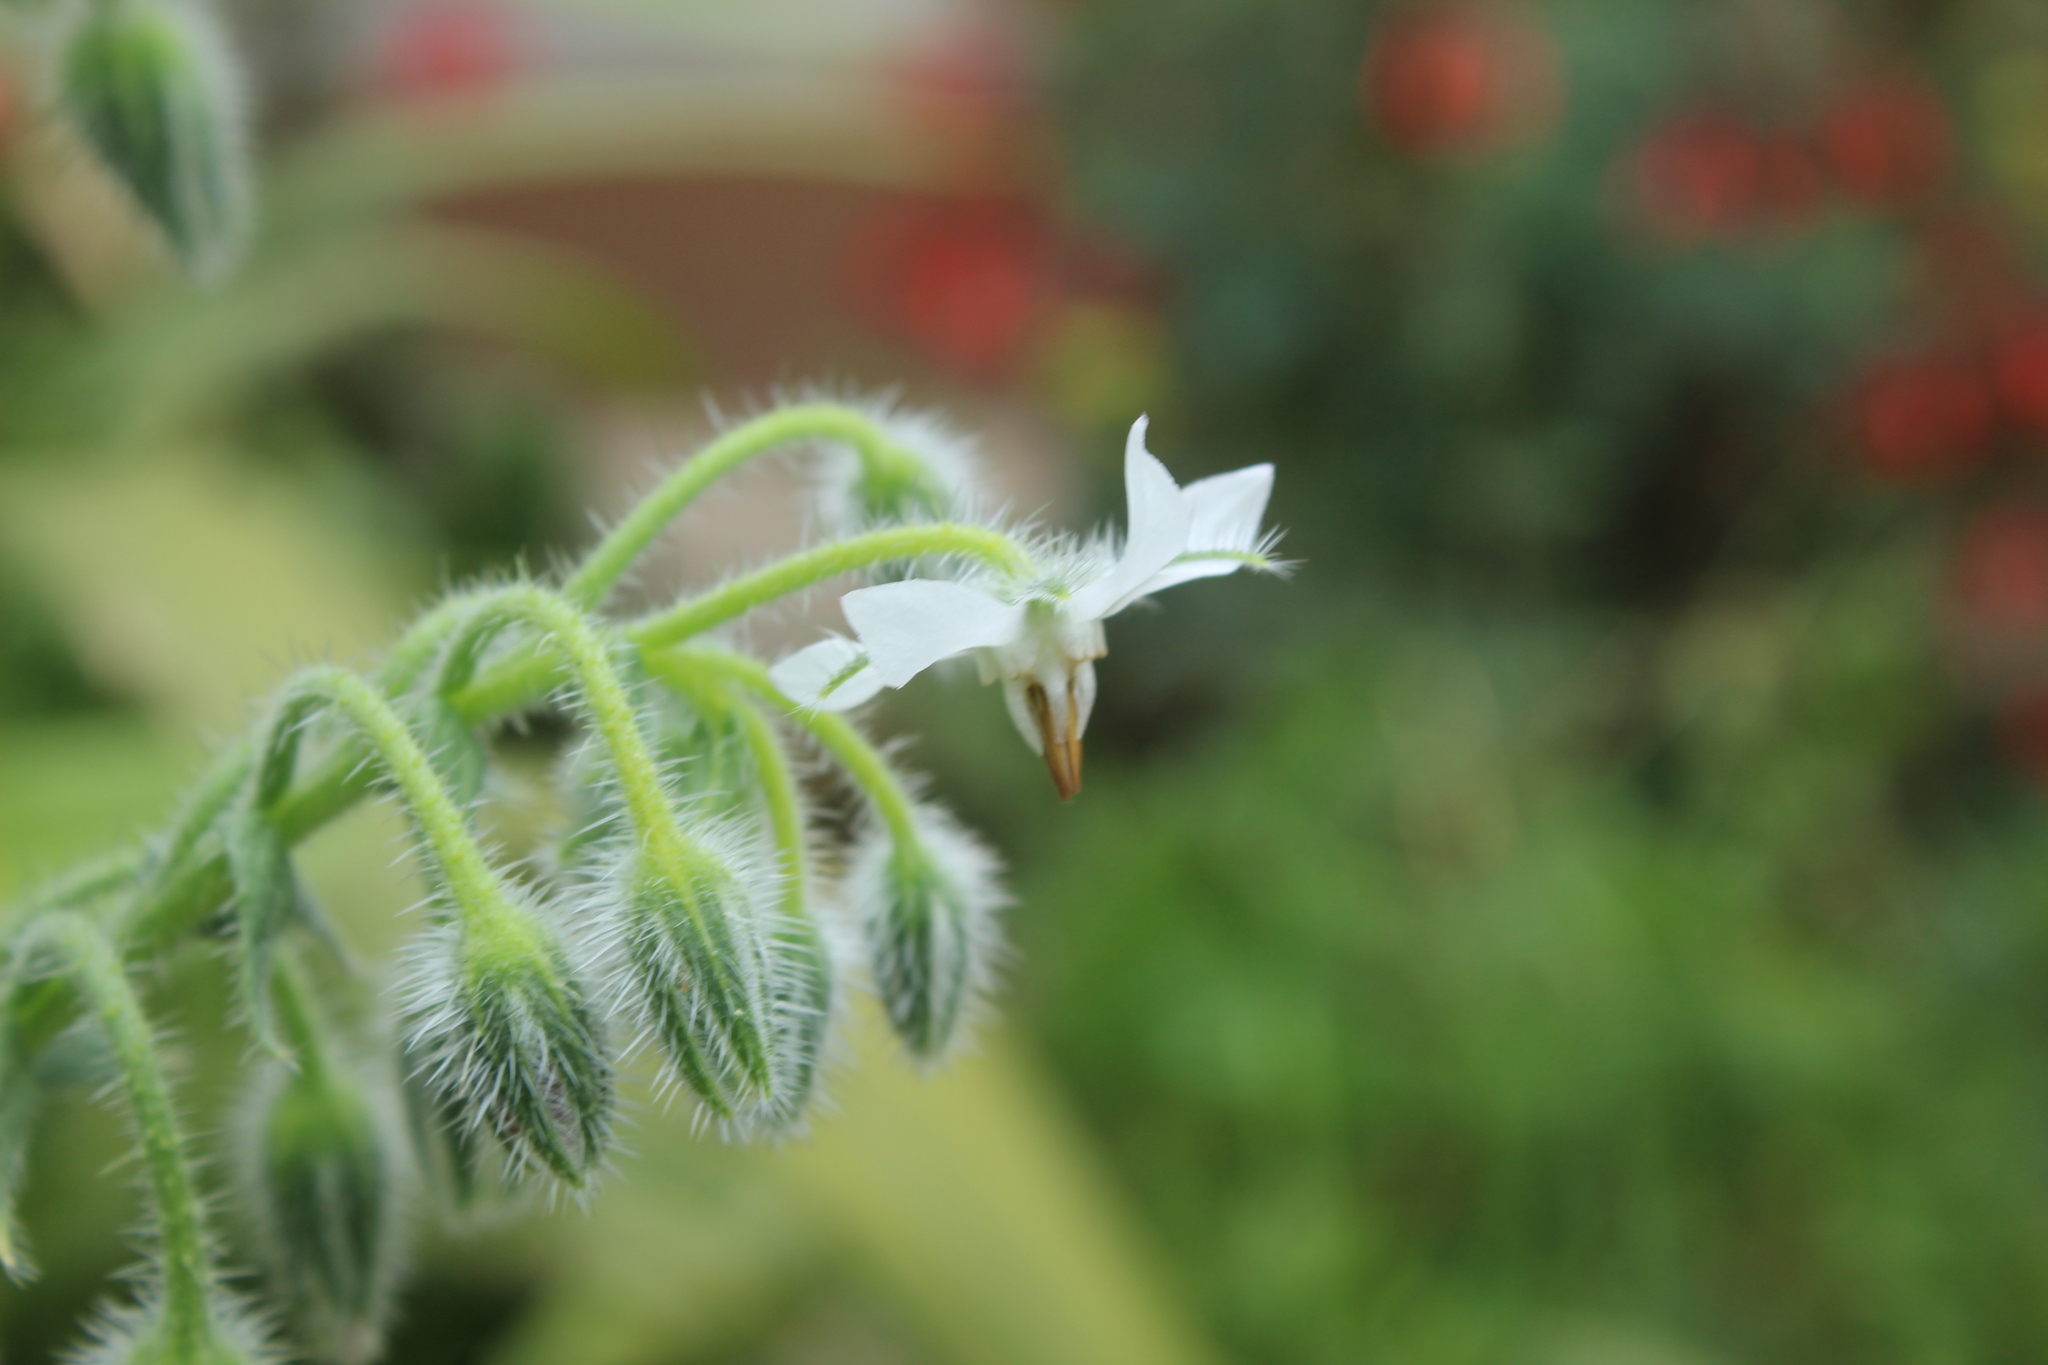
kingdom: Plantae
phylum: Tracheophyta
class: Magnoliopsida
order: Boraginales
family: Boraginaceae
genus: Borago
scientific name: Borago officinalis
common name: Borage
